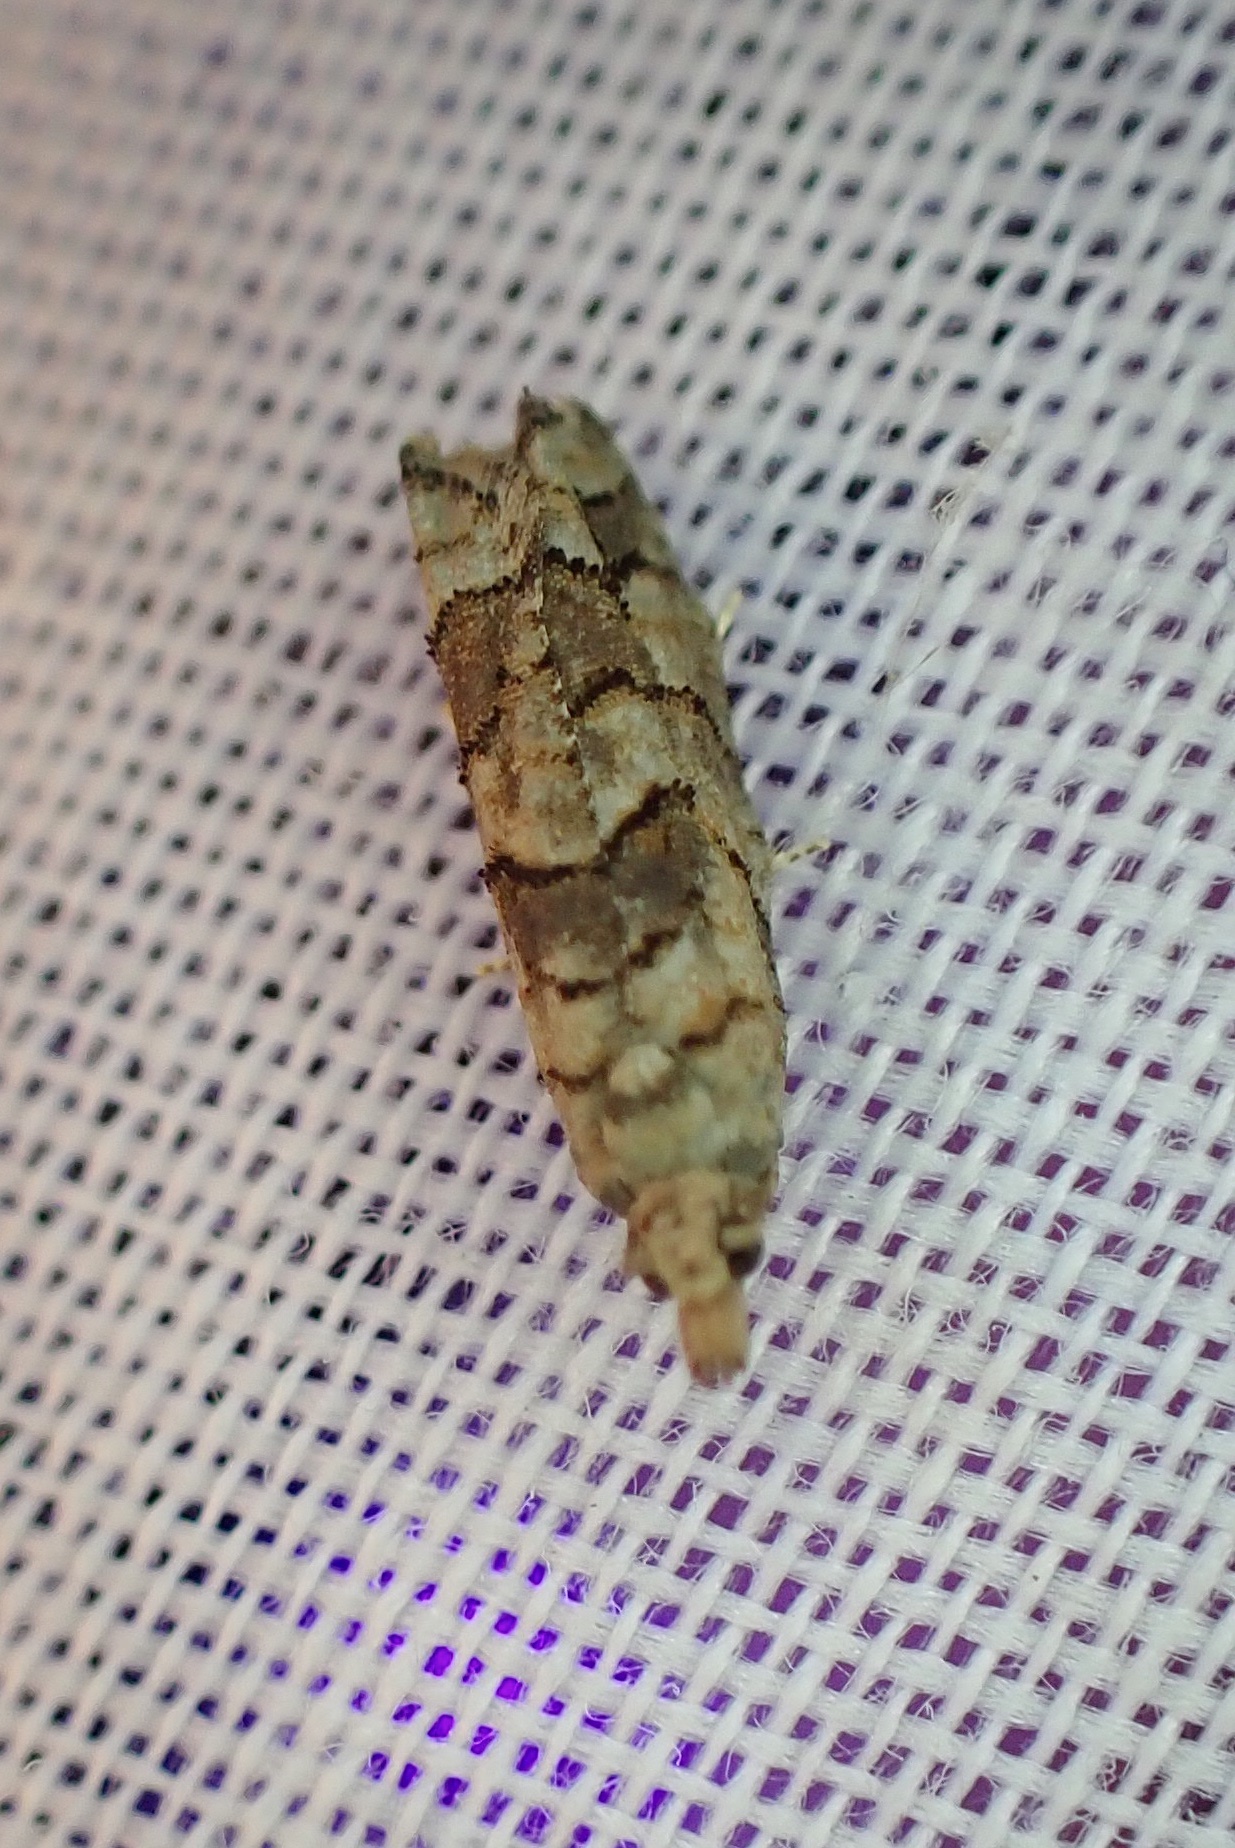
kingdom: Animalia
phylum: Arthropoda
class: Insecta
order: Lepidoptera
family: Tortricidae
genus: Epinotia
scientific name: Epinotia subviridis
